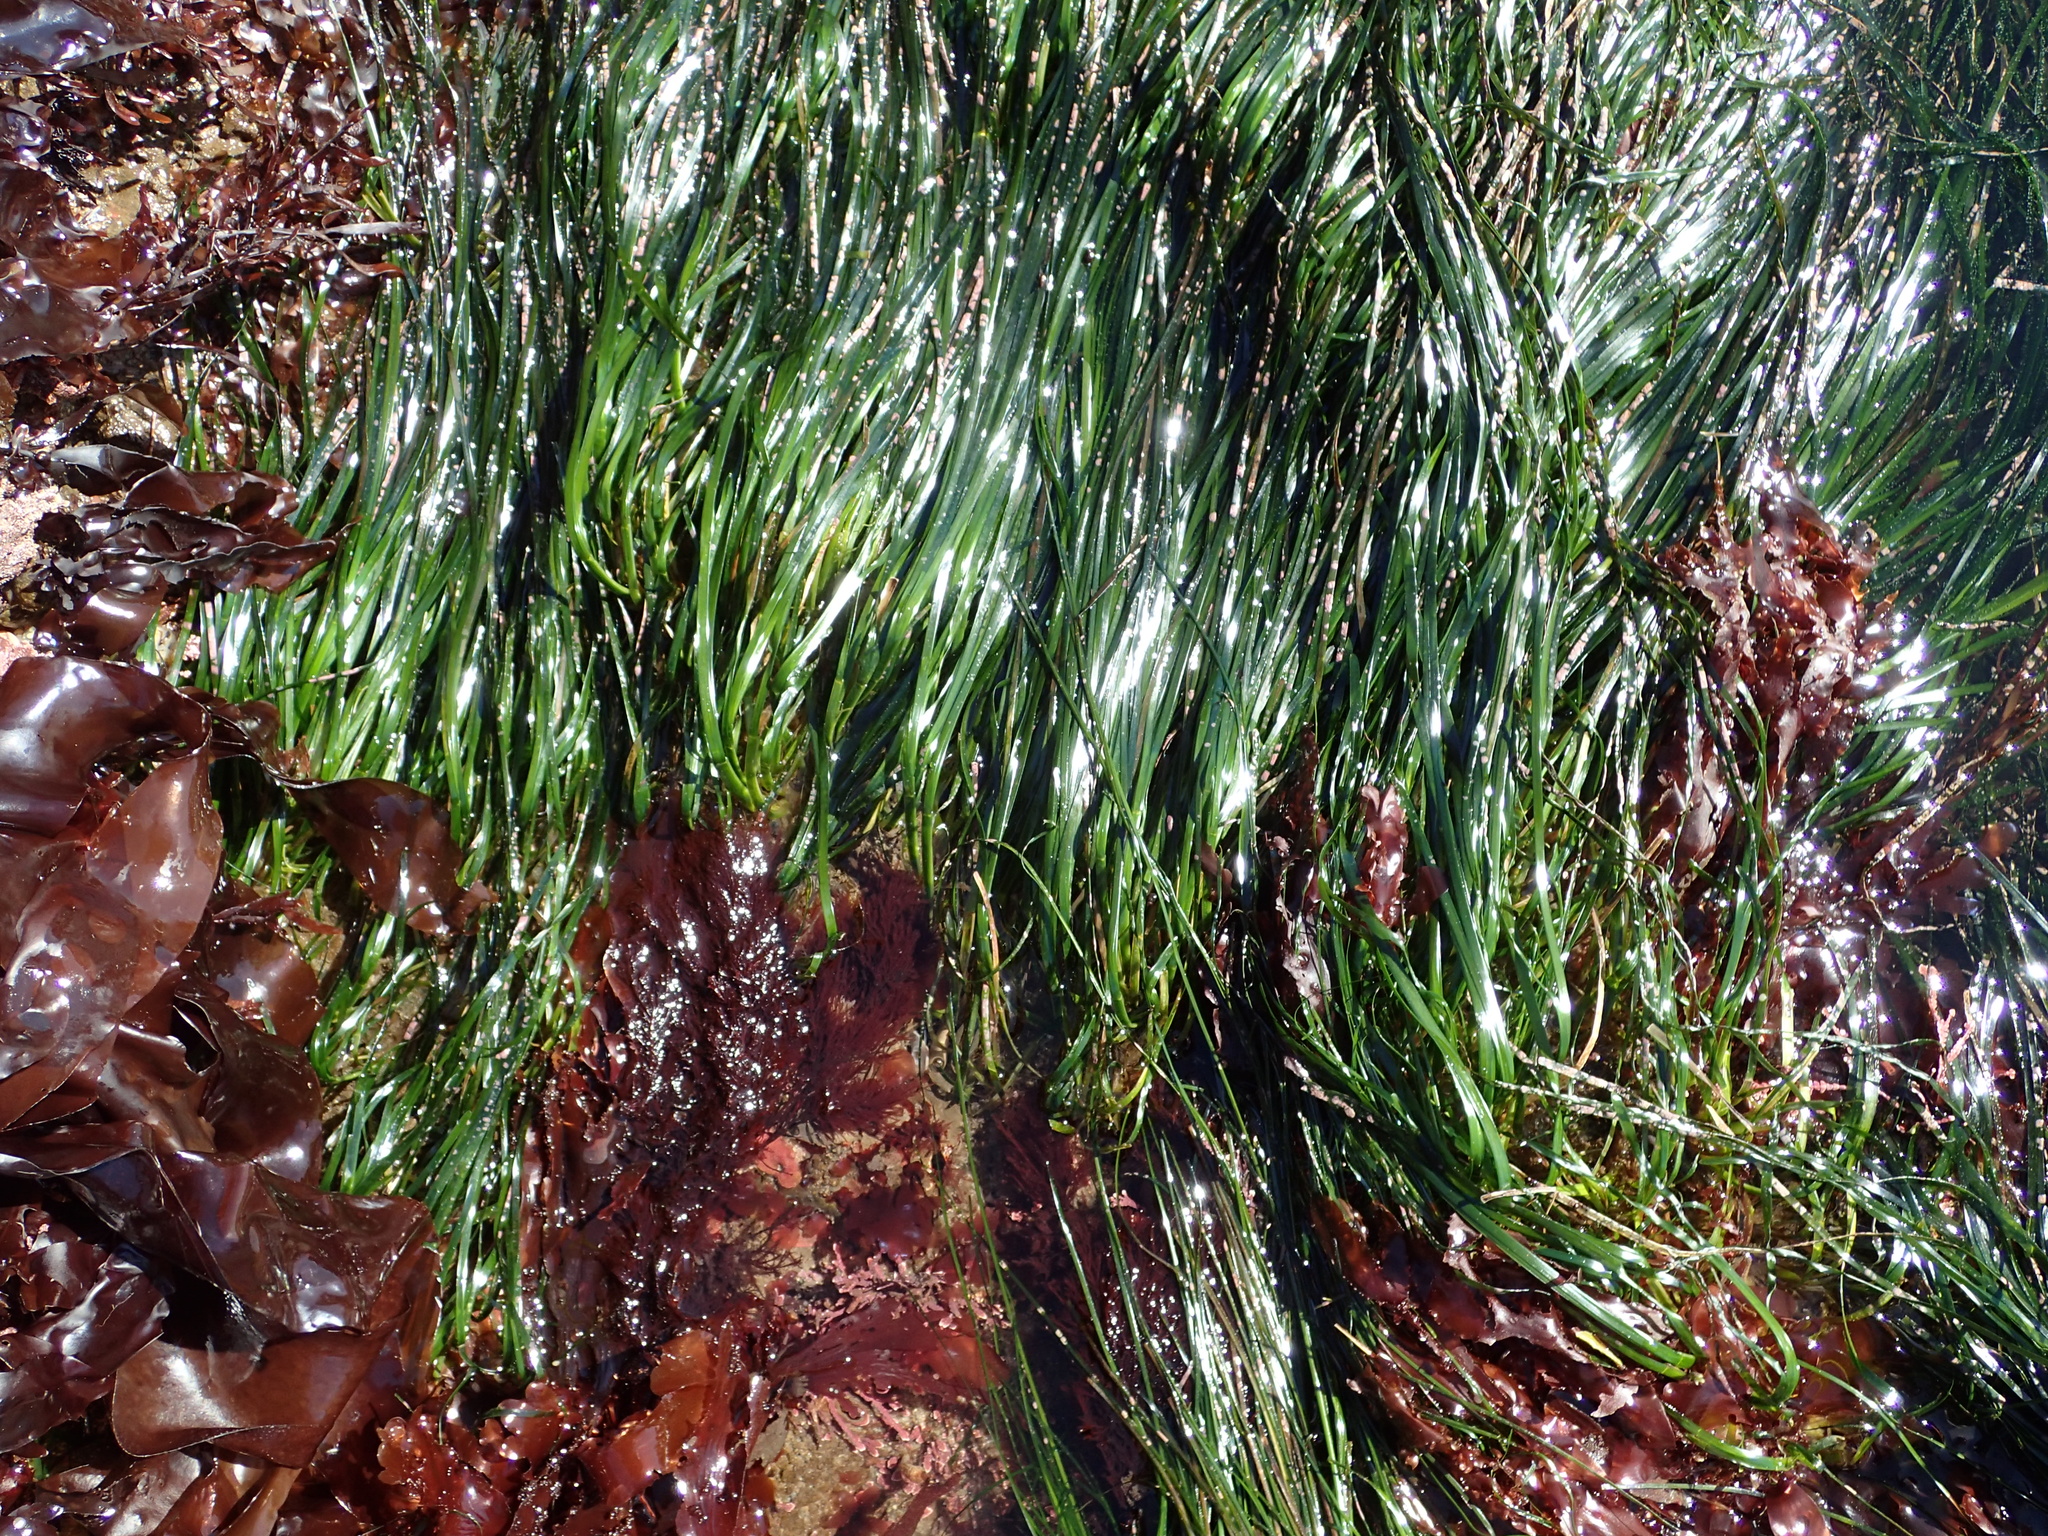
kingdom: Plantae
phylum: Tracheophyta
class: Liliopsida
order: Alismatales
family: Zosteraceae
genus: Phyllospadix
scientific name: Phyllospadix scouleri
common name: Species code: ps
